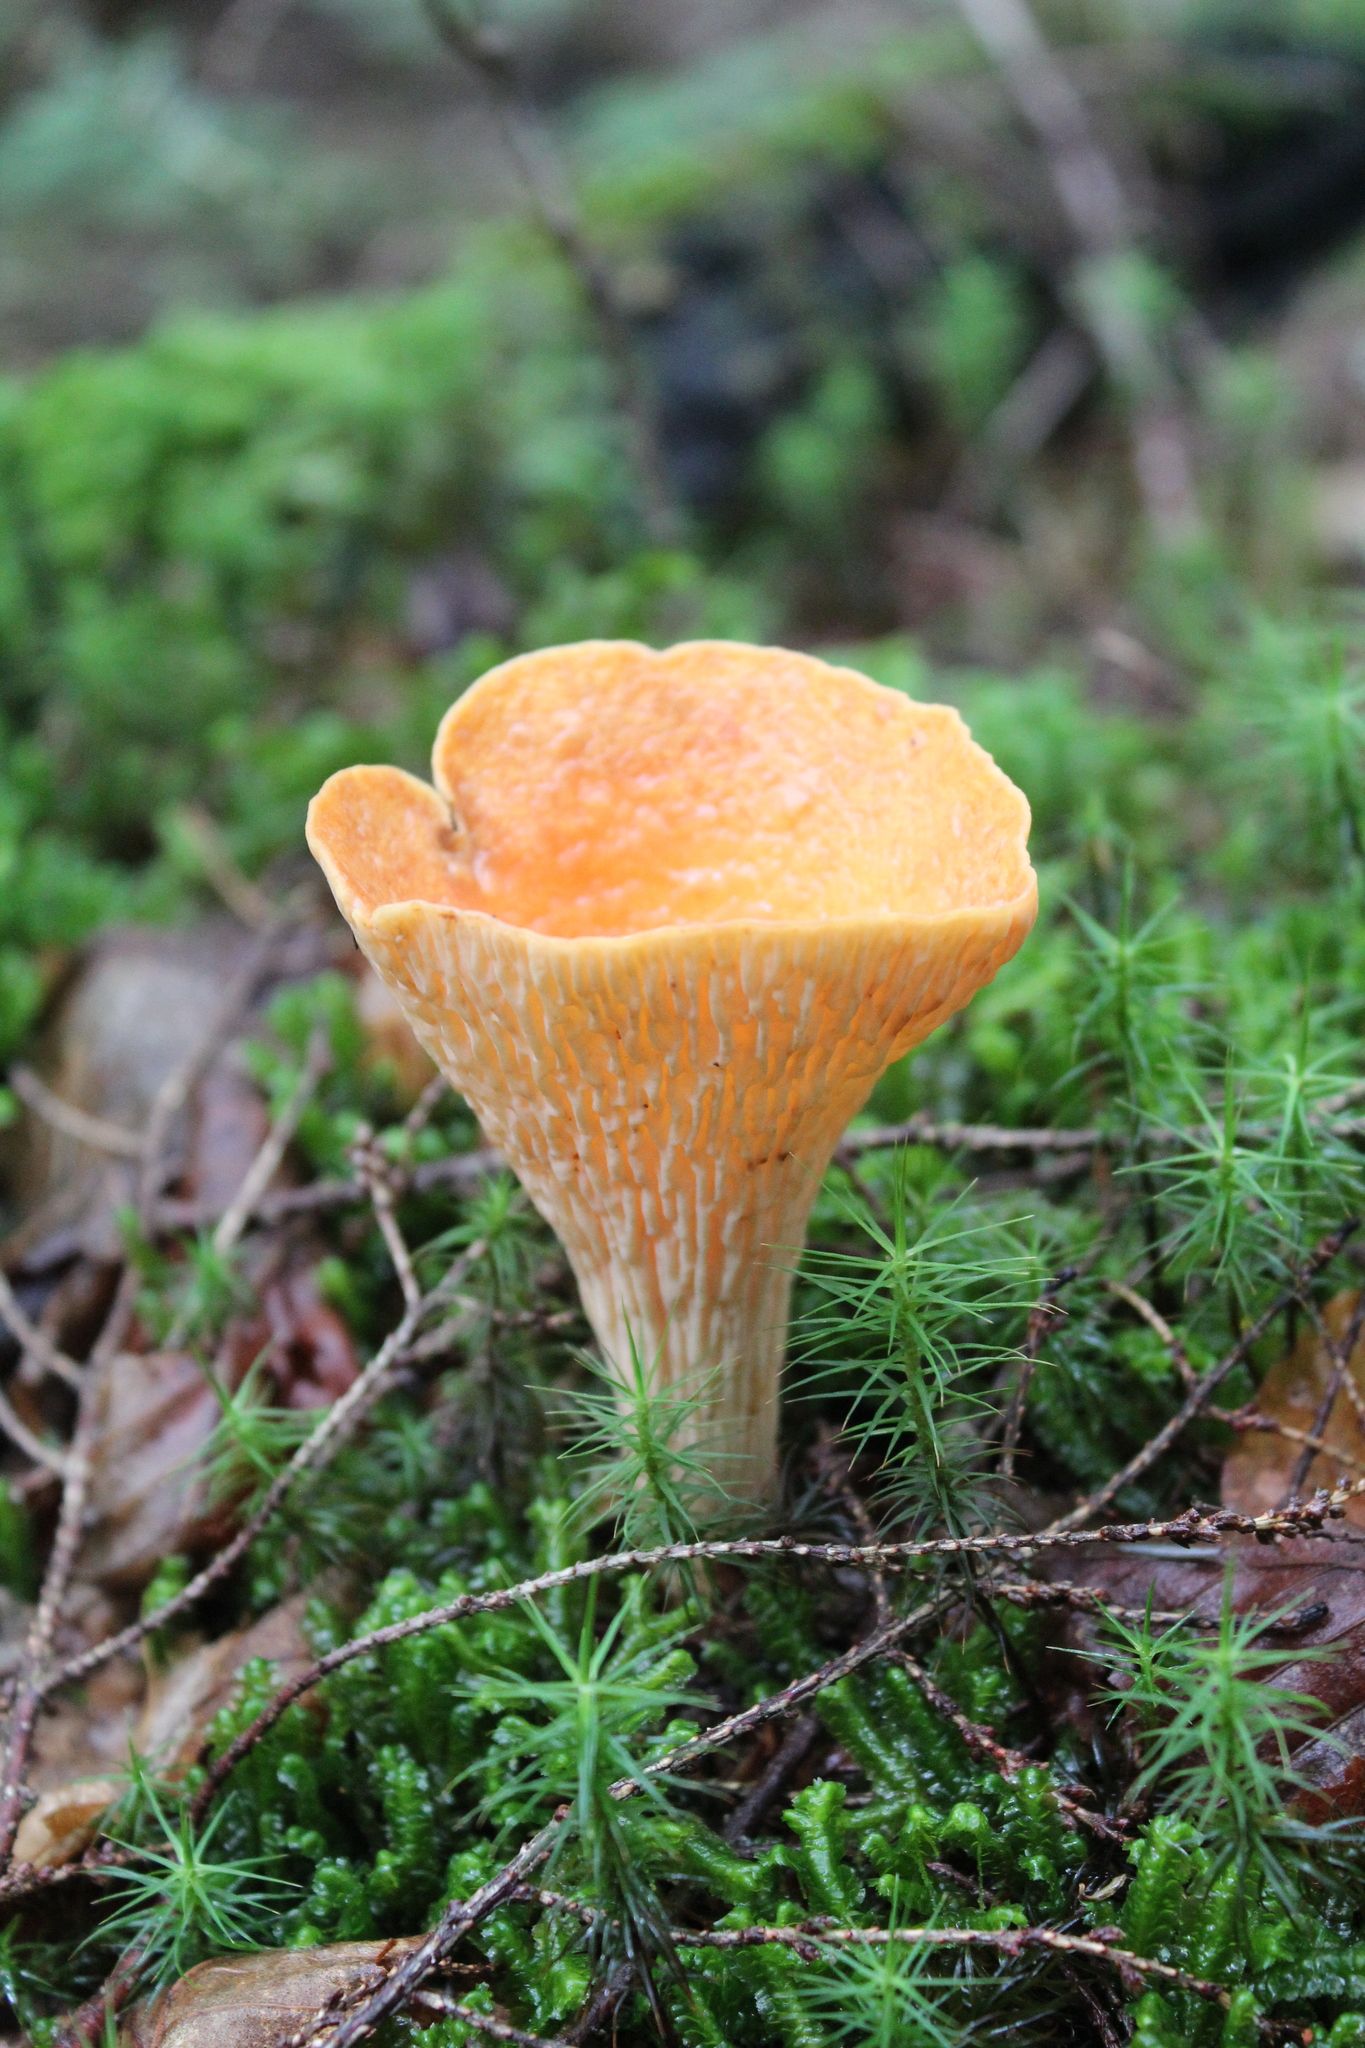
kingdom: Fungi
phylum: Basidiomycota
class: Agaricomycetes
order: Gomphales
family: Gomphaceae
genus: Turbinellus
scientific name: Turbinellus floccosus
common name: Scaly chanterelle
